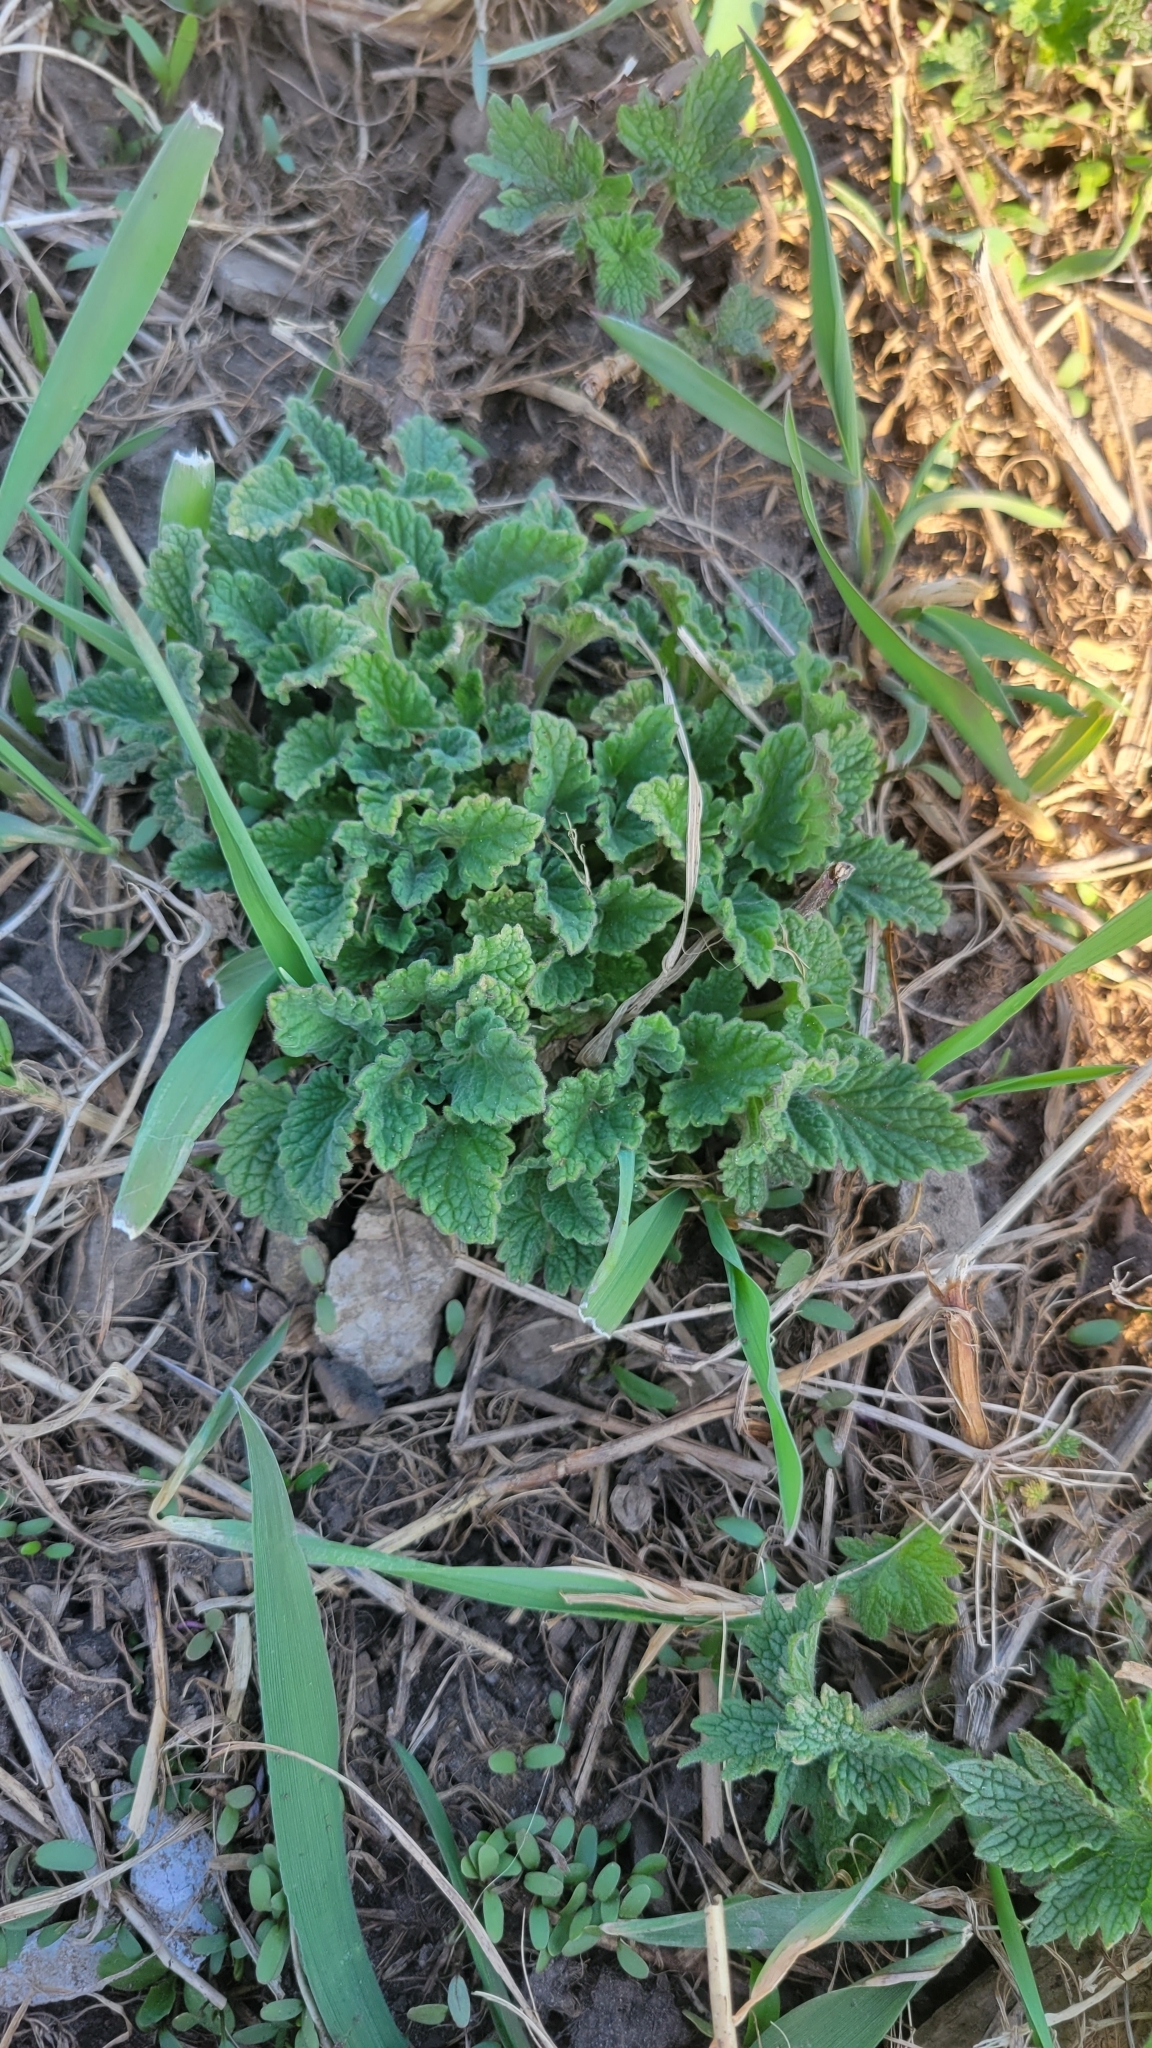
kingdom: Plantae
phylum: Tracheophyta
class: Magnoliopsida
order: Lamiales
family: Lamiaceae
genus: Nepeta
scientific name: Nepeta cataria
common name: Catnip
